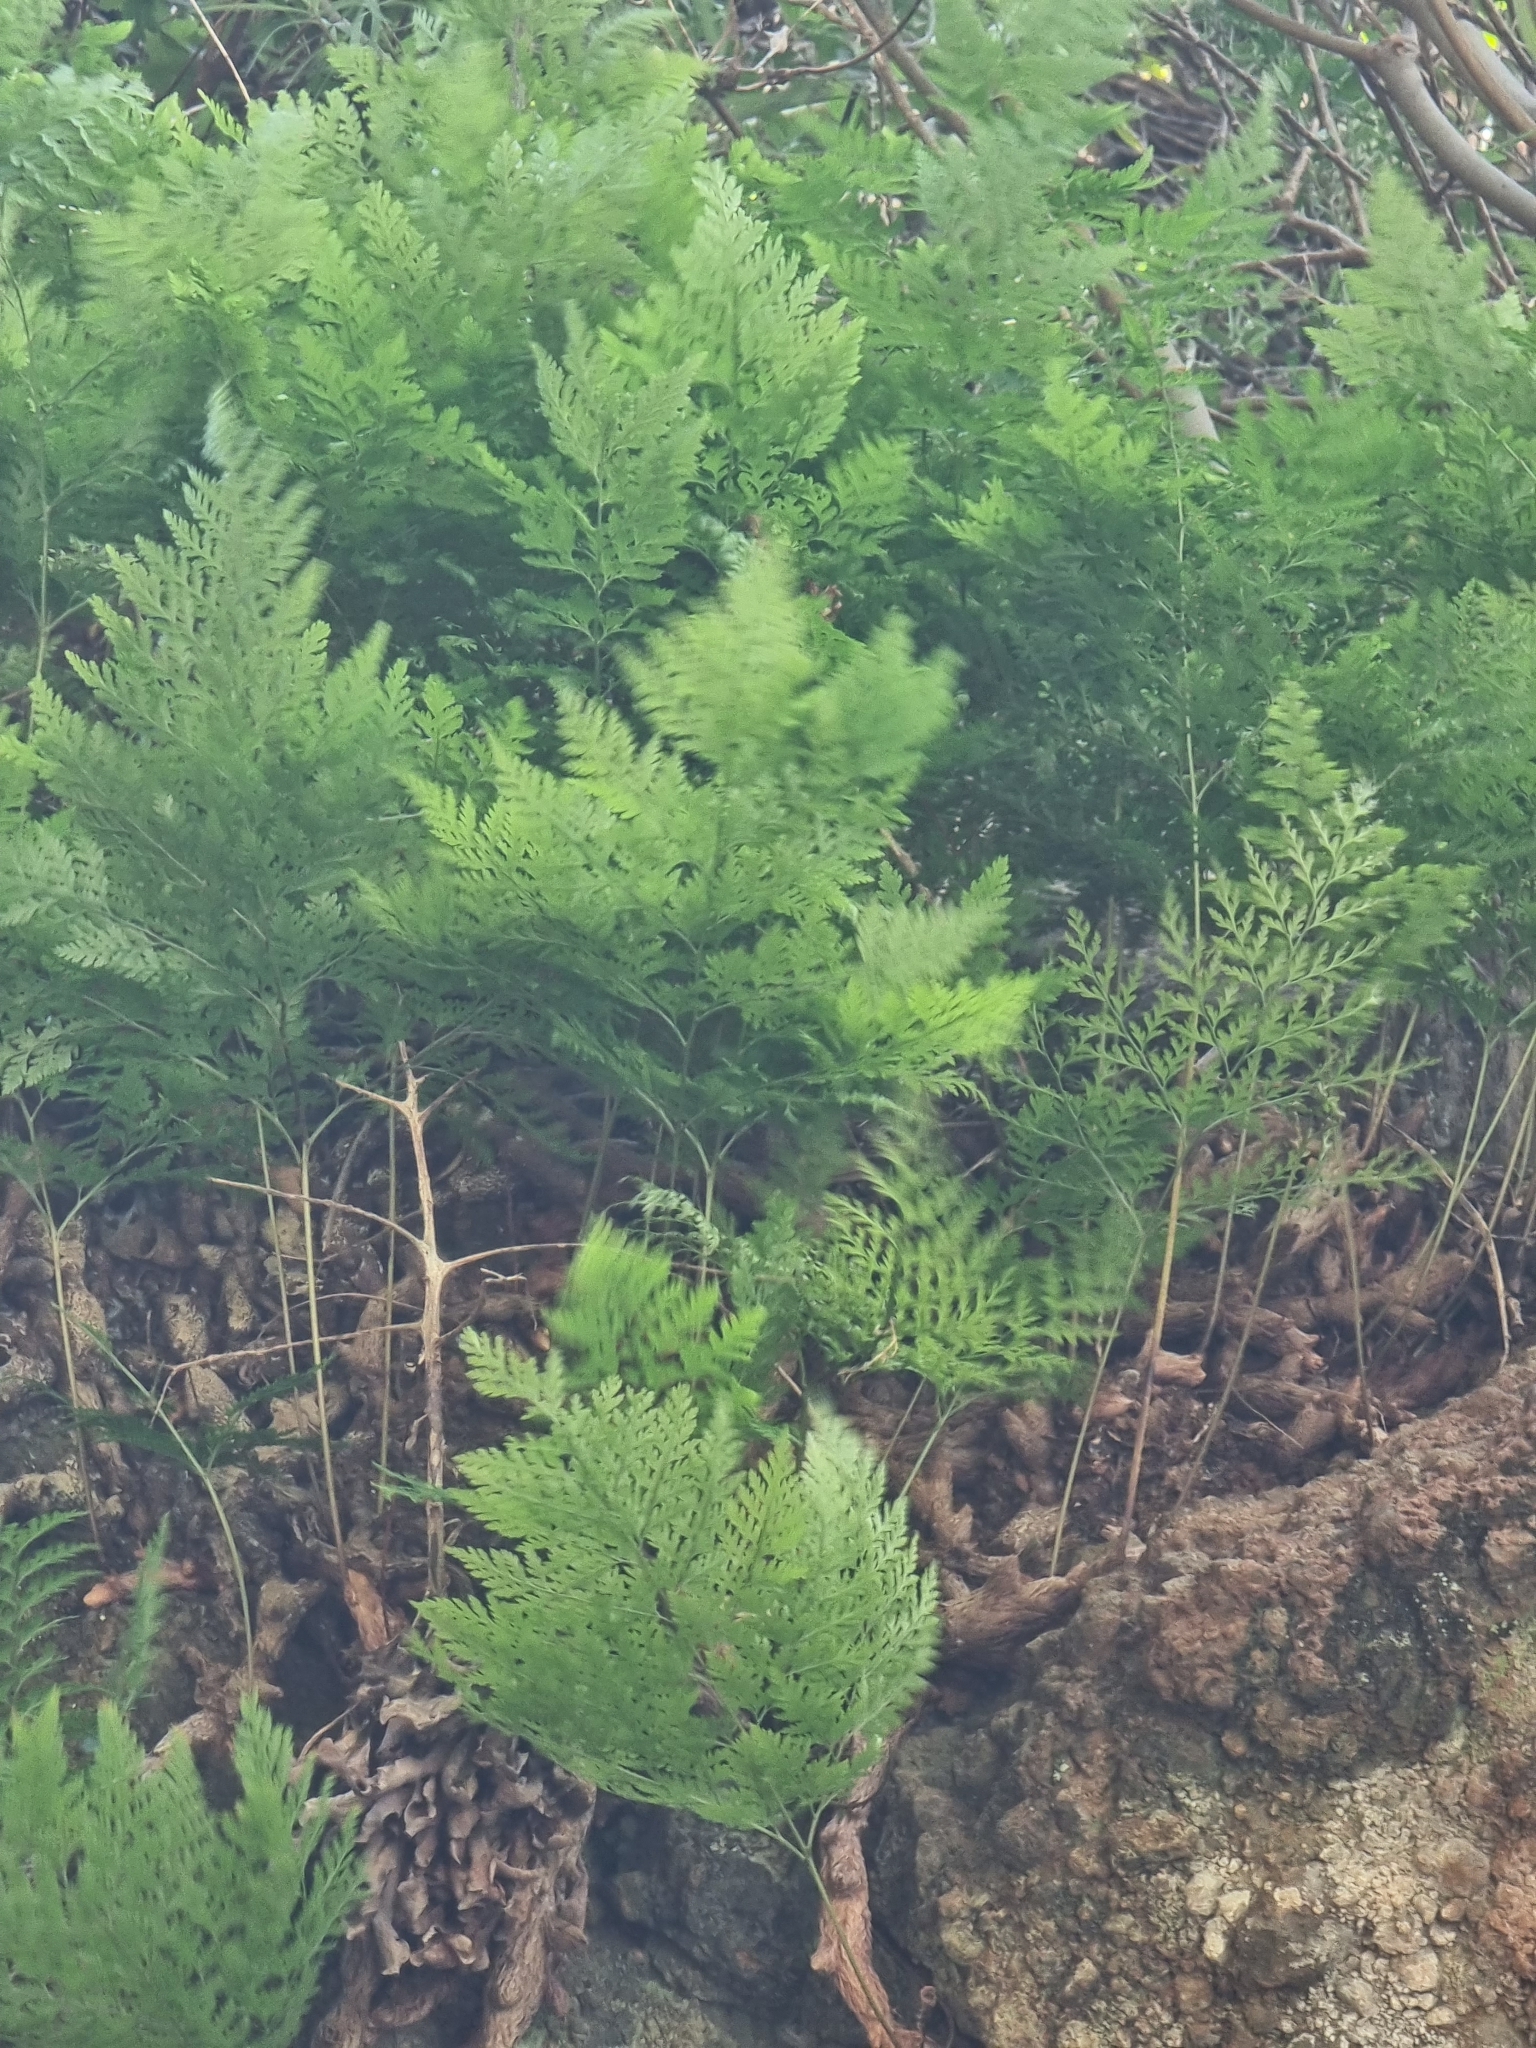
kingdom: Plantae
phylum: Tracheophyta
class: Polypodiopsida
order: Polypodiales
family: Davalliaceae
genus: Davallia
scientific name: Davallia canariensis
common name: Hare's-foot fern
